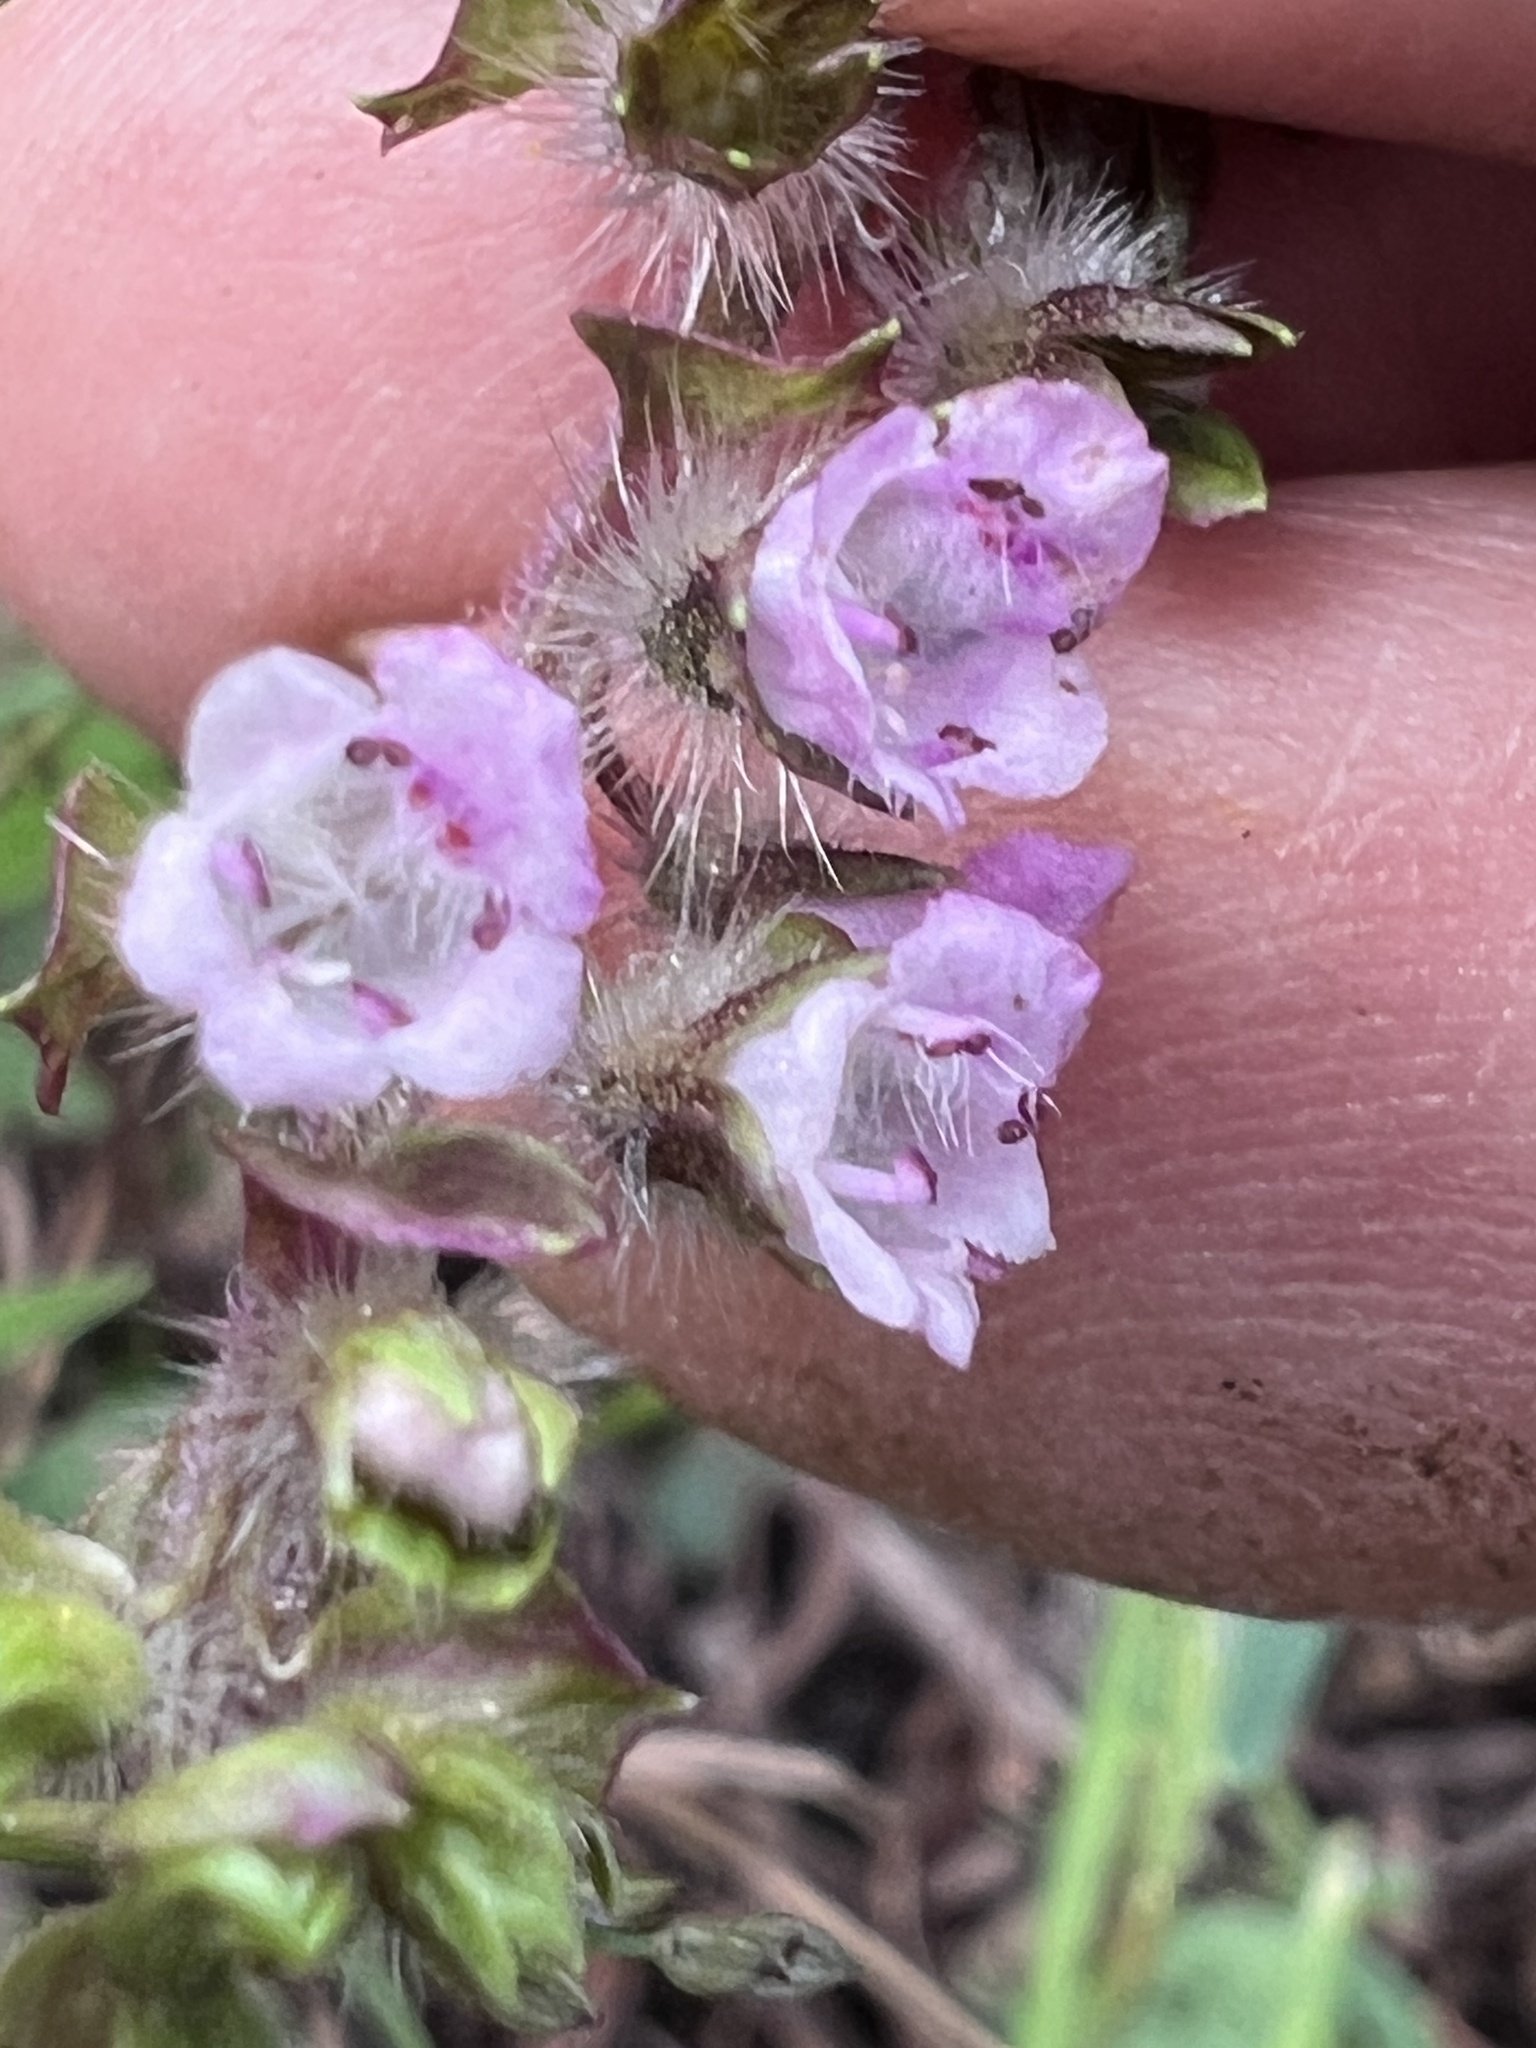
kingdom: Plantae
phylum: Tracheophyta
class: Magnoliopsida
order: Lamiales
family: Lamiaceae
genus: Perilla
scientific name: Perilla frutescens
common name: Perilla
